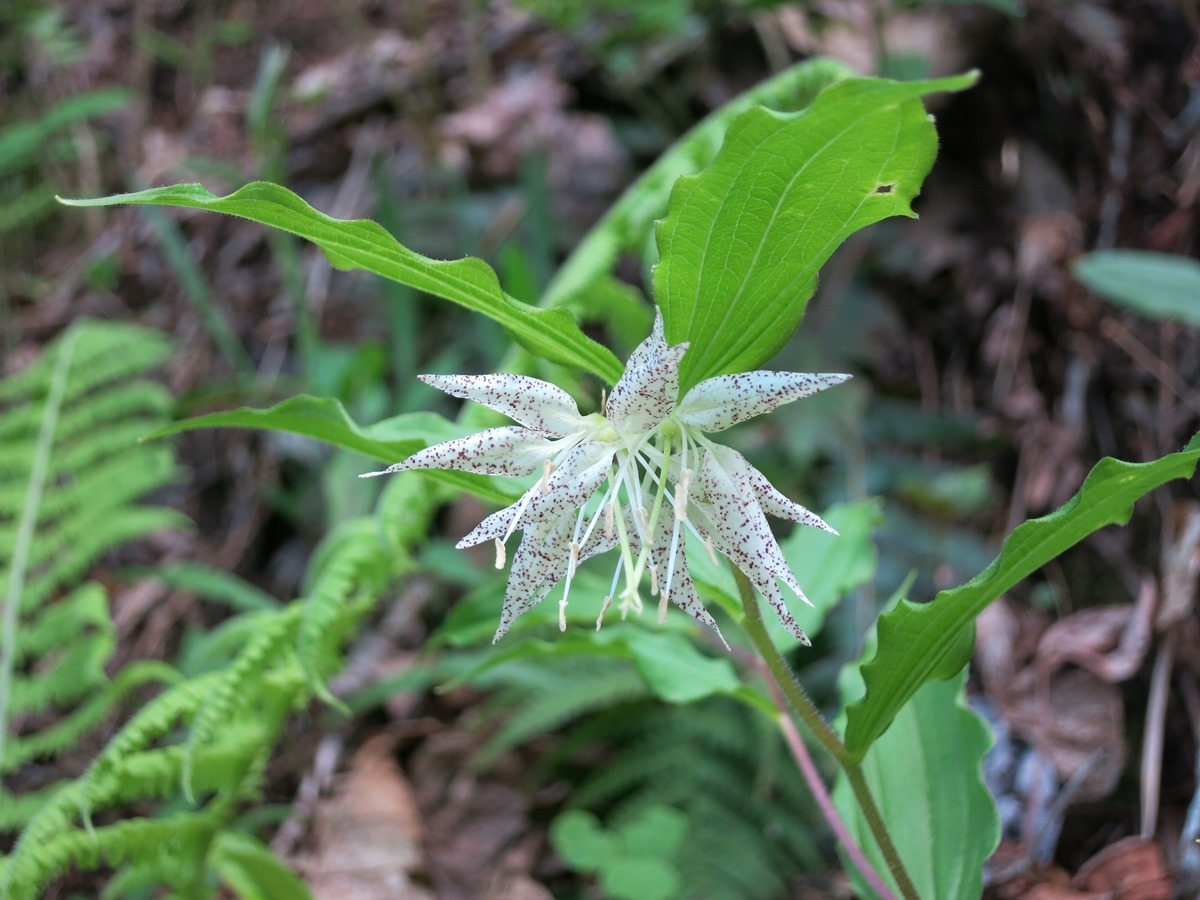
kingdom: Plantae
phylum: Tracheophyta
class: Liliopsida
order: Liliales
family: Liliaceae
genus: Prosartes
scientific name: Prosartes maculata
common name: Yellow mandarin
